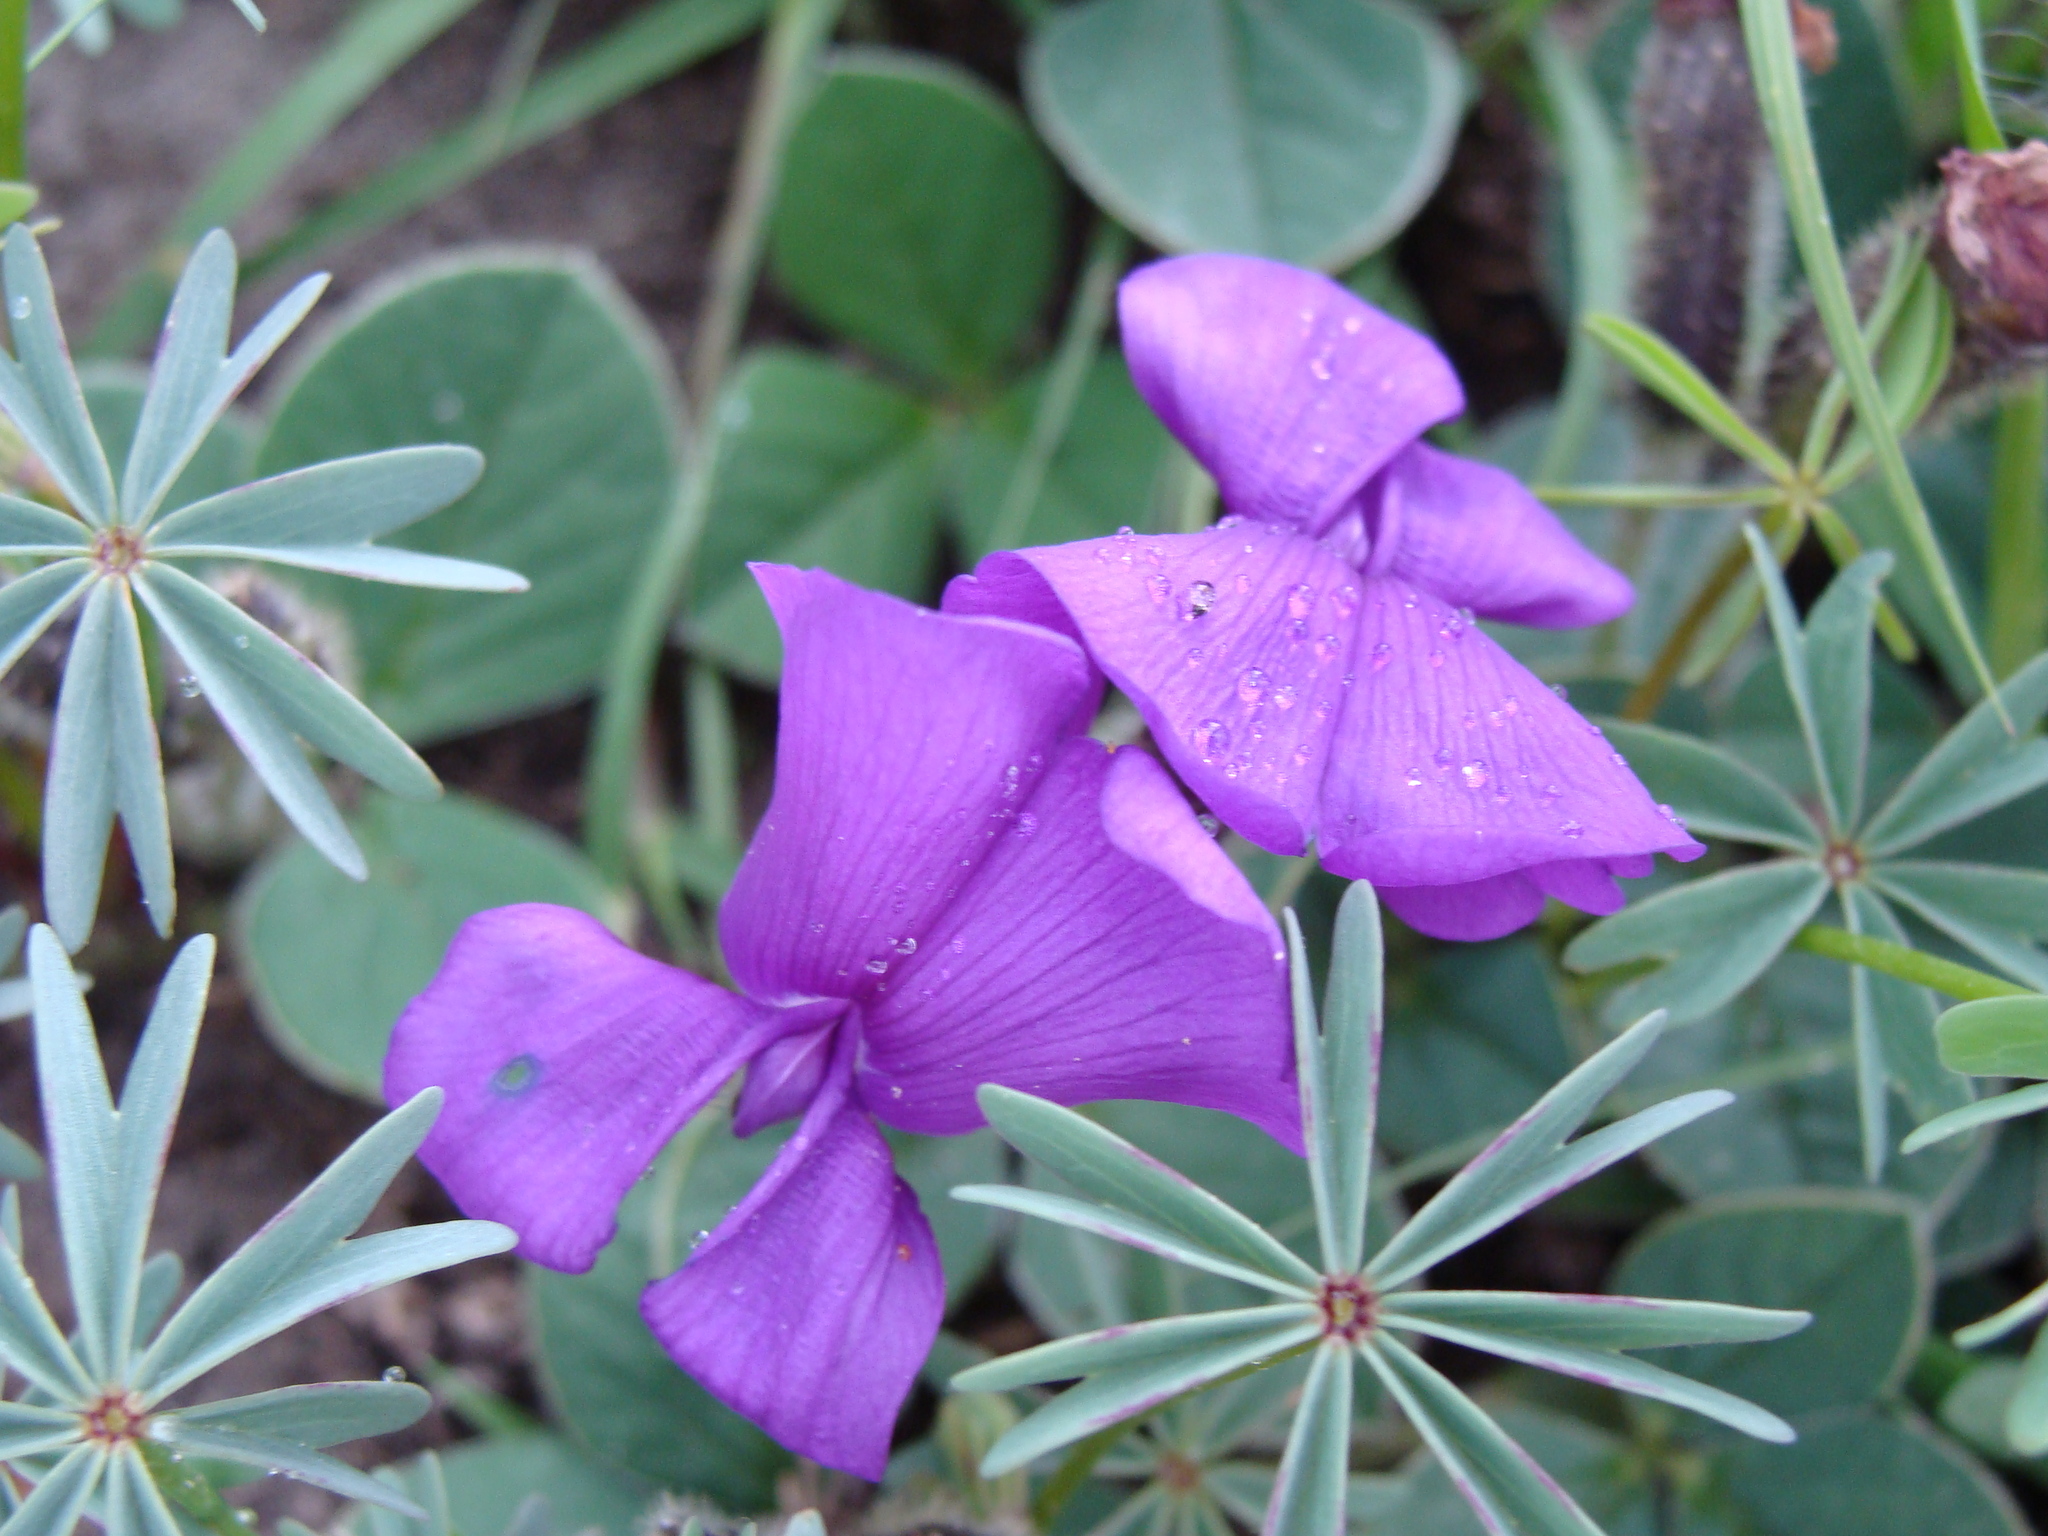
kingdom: Plantae
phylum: Tracheophyta
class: Magnoliopsida
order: Fabales
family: Fabaceae
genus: Cologania
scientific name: Cologania obovata
